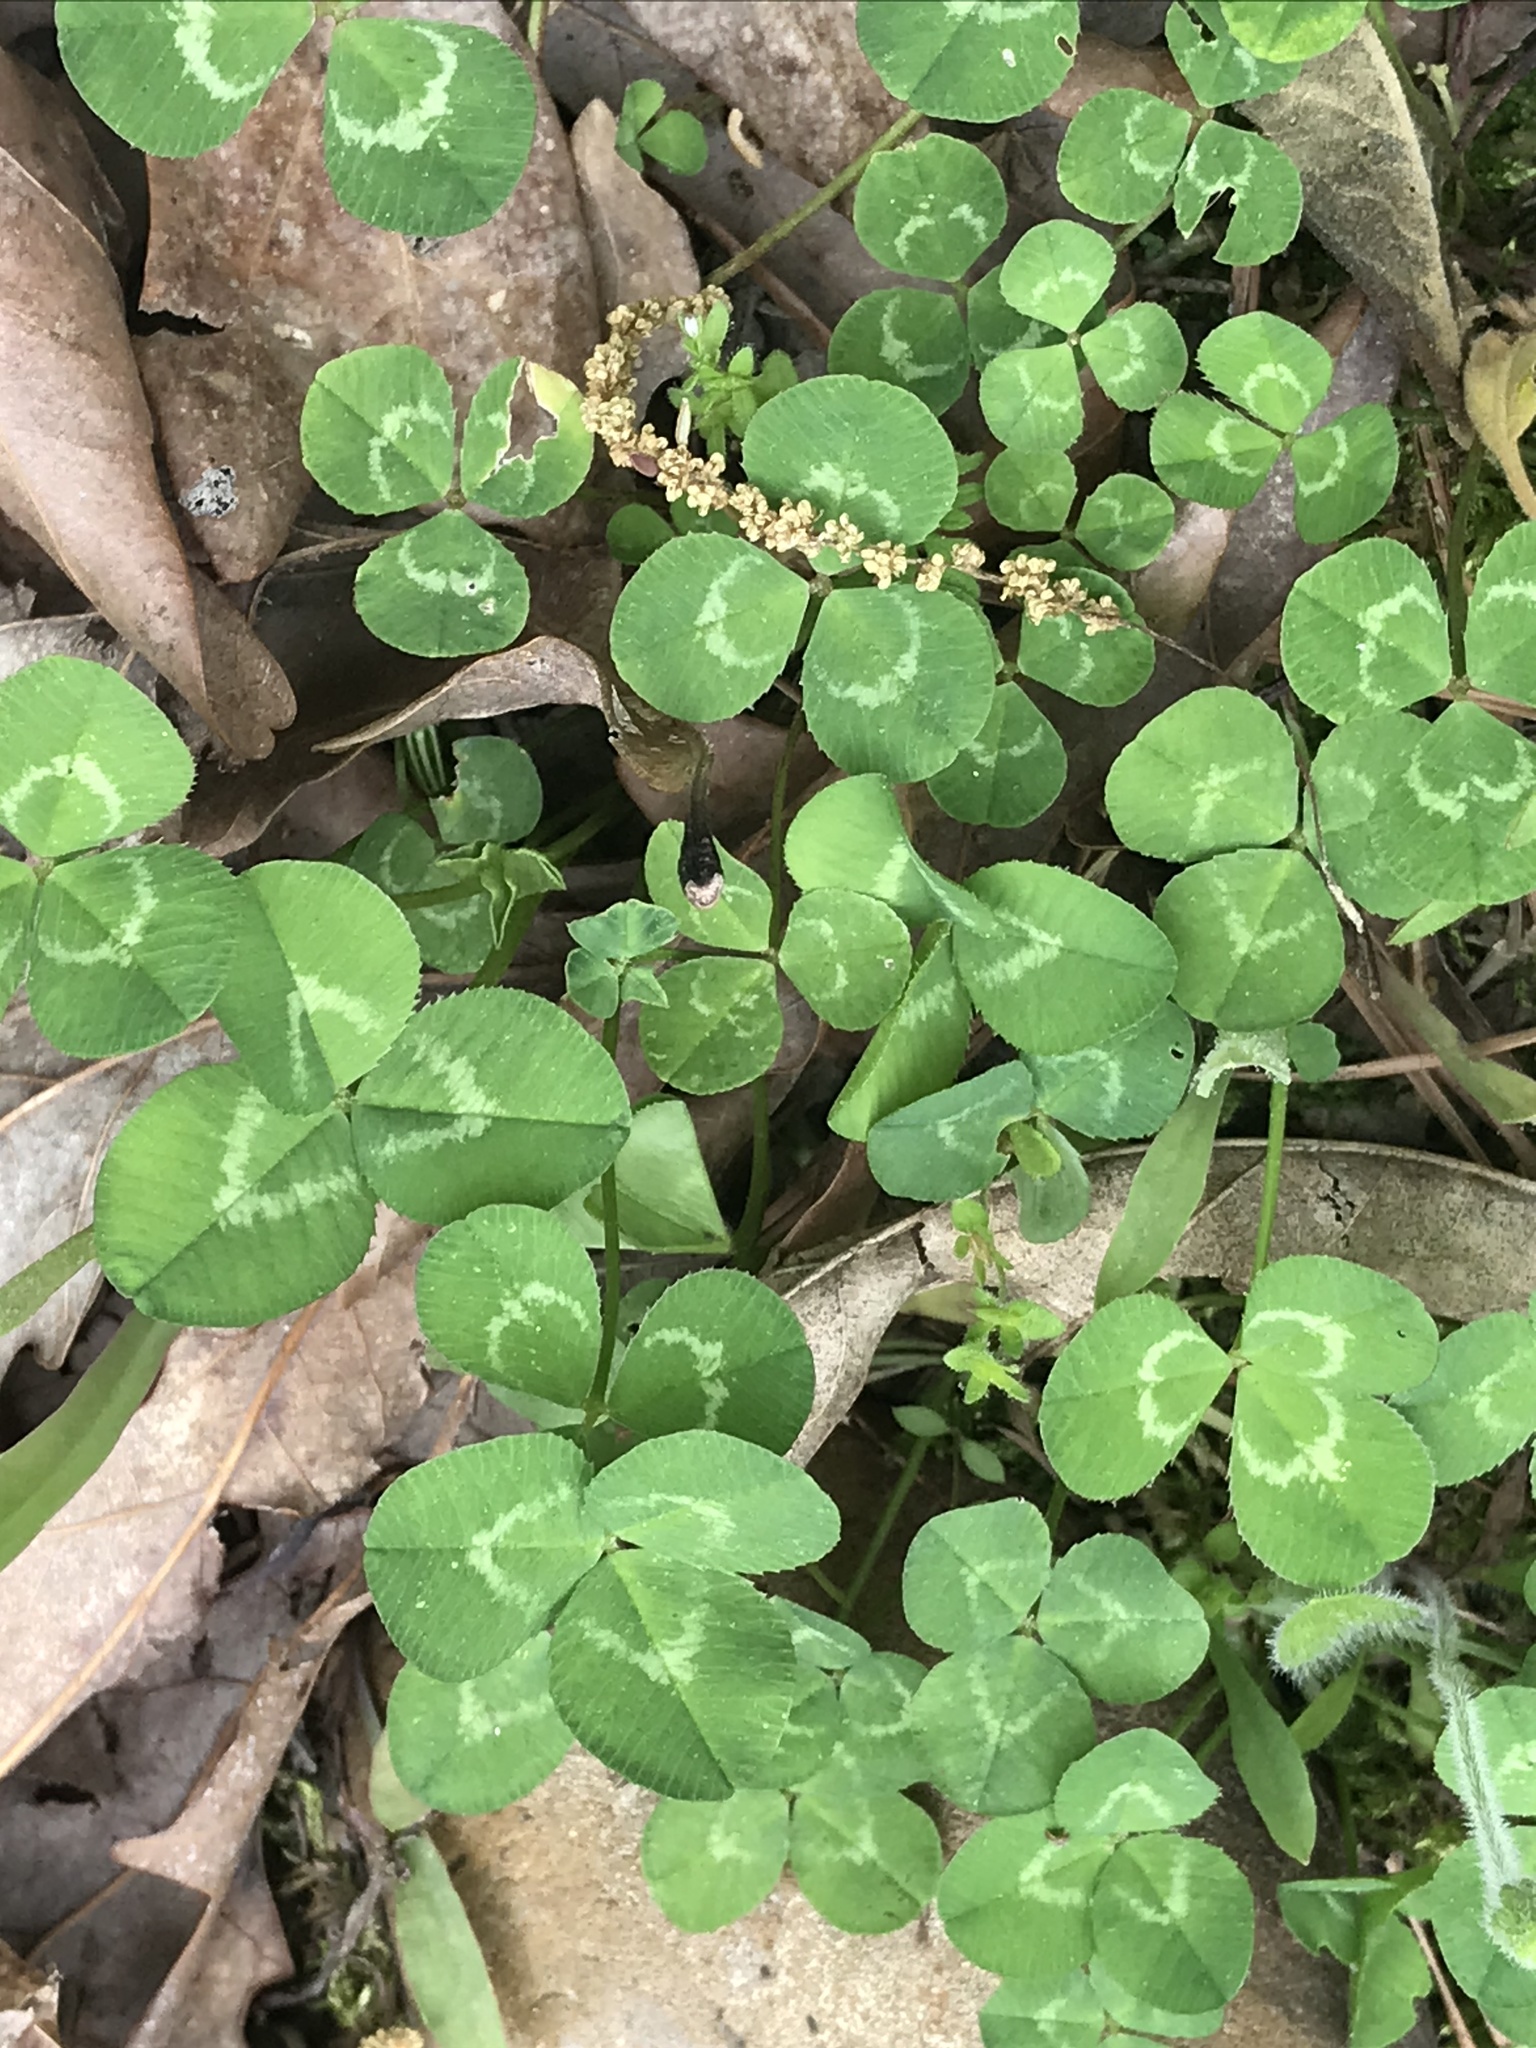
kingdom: Plantae
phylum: Tracheophyta
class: Magnoliopsida
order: Fabales
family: Fabaceae
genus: Trifolium
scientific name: Trifolium repens
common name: White clover
